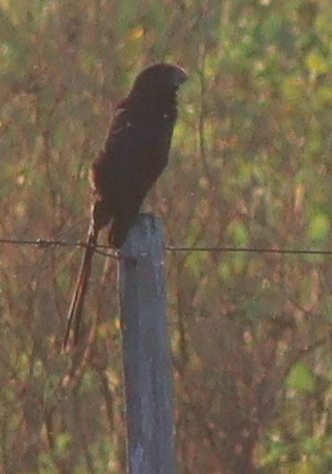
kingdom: Animalia
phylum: Chordata
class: Aves
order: Cuculiformes
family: Cuculidae
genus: Crotophaga
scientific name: Crotophaga ani
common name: Smooth-billed ani
